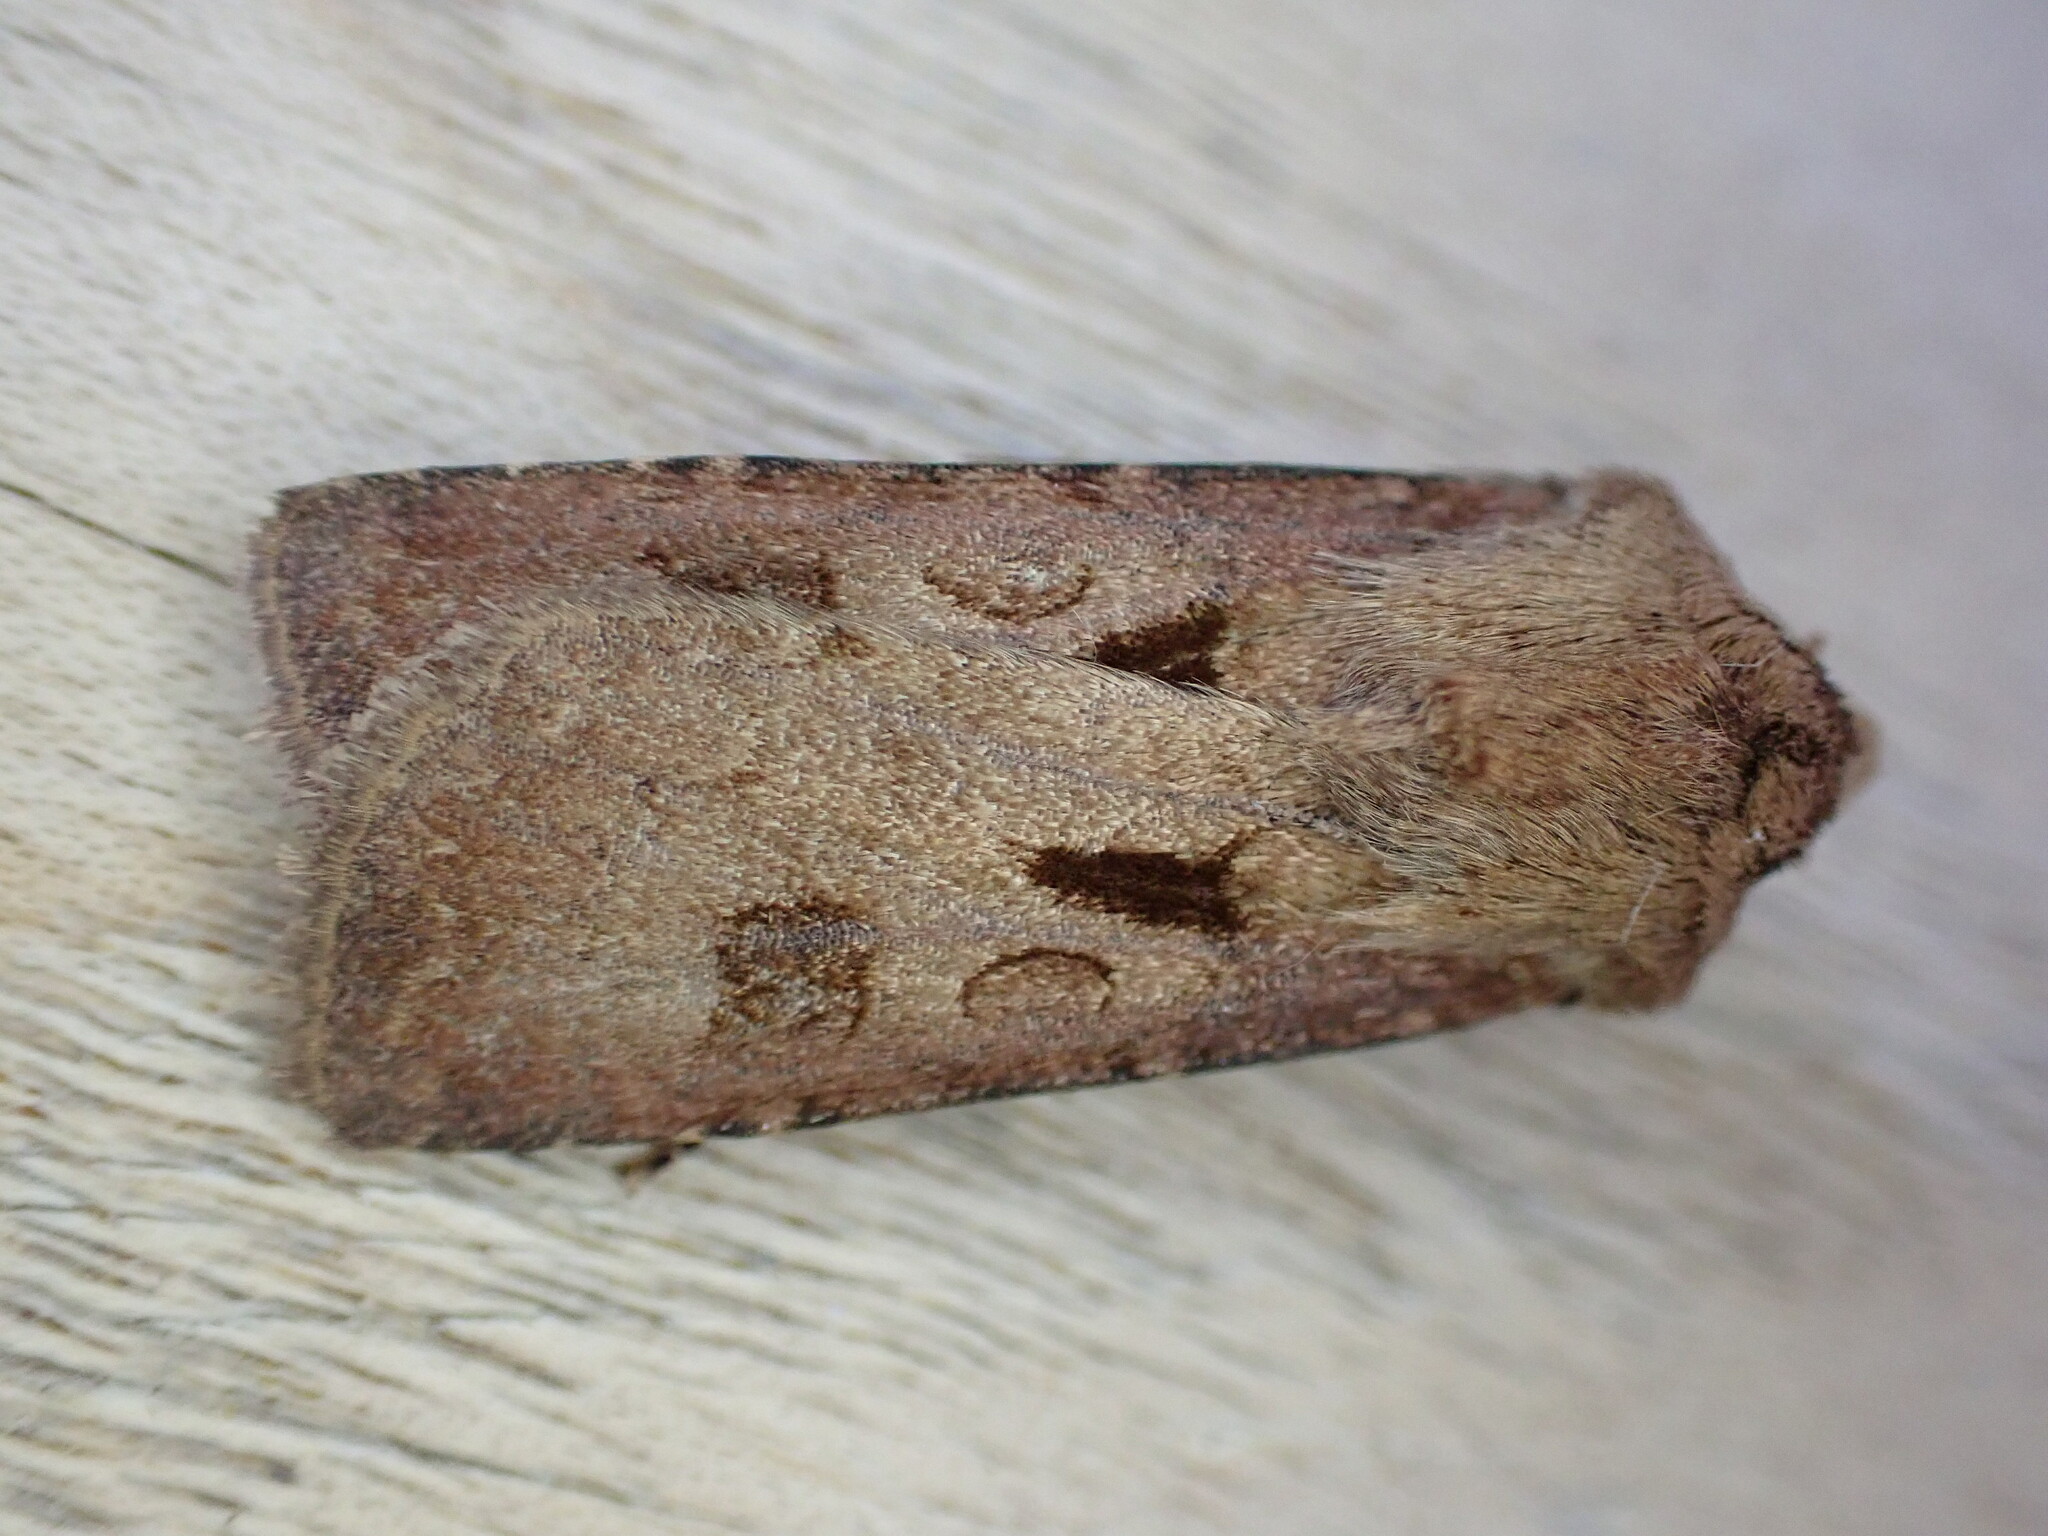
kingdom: Animalia
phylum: Arthropoda
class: Insecta
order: Lepidoptera
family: Noctuidae
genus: Agrotis
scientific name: Agrotis exclamationis
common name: Heart and dart
